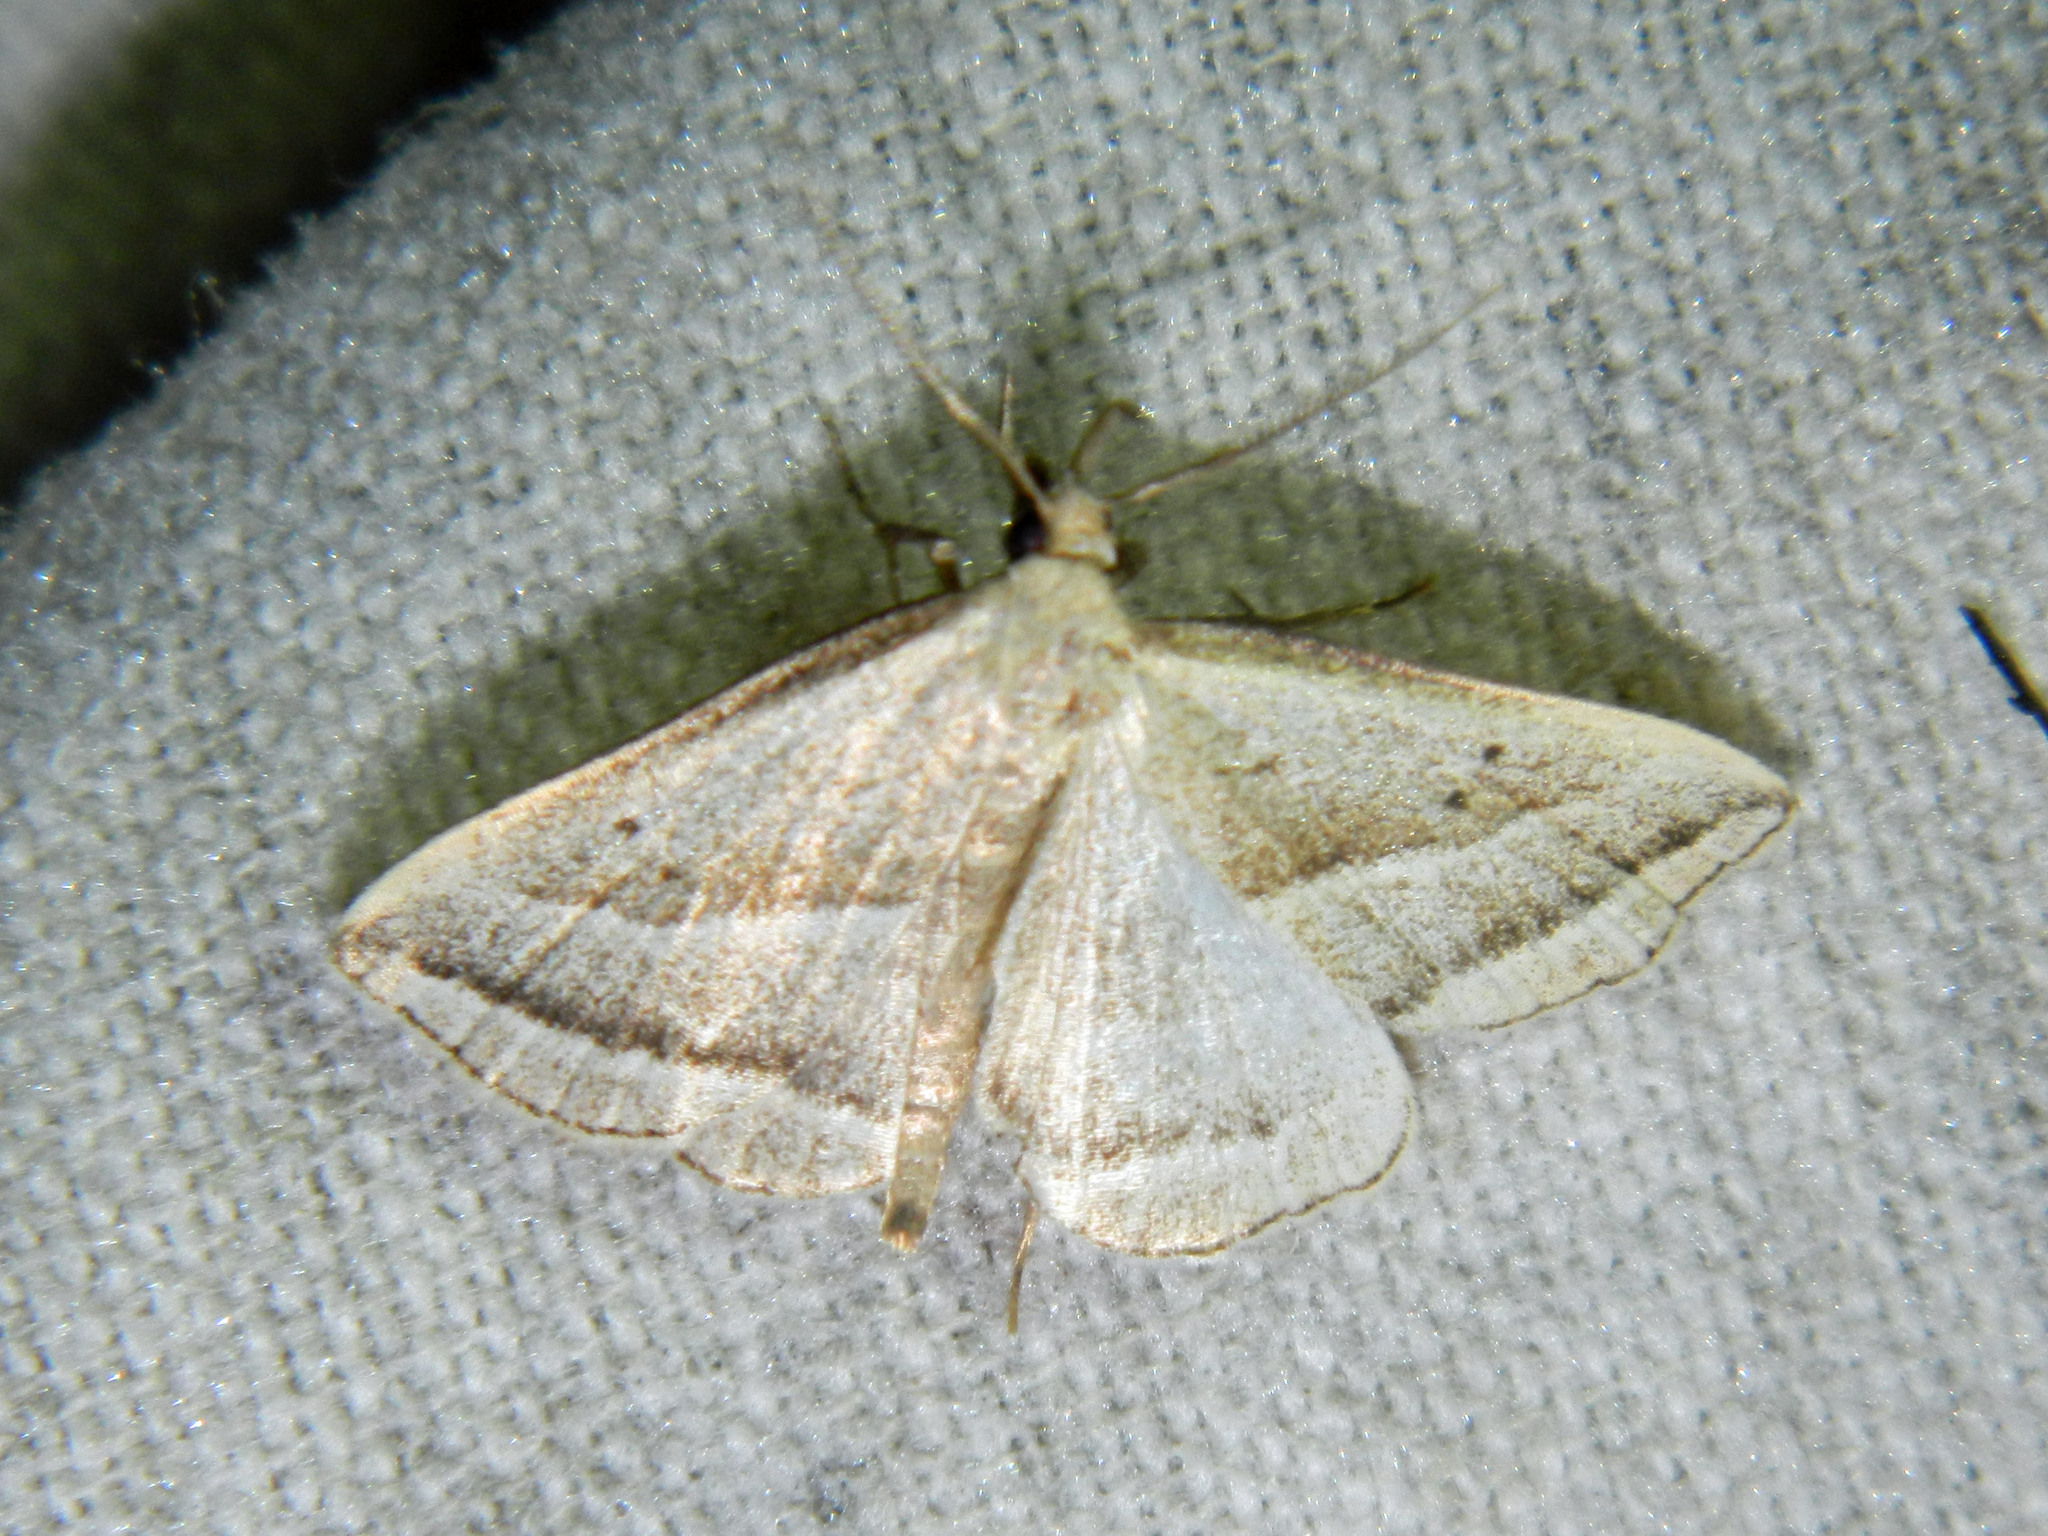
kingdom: Animalia
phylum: Arthropoda
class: Insecta
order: Lepidoptera
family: Erebidae
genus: Macrochilo
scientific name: Macrochilo absorptalis
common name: Slant-lined owlet
